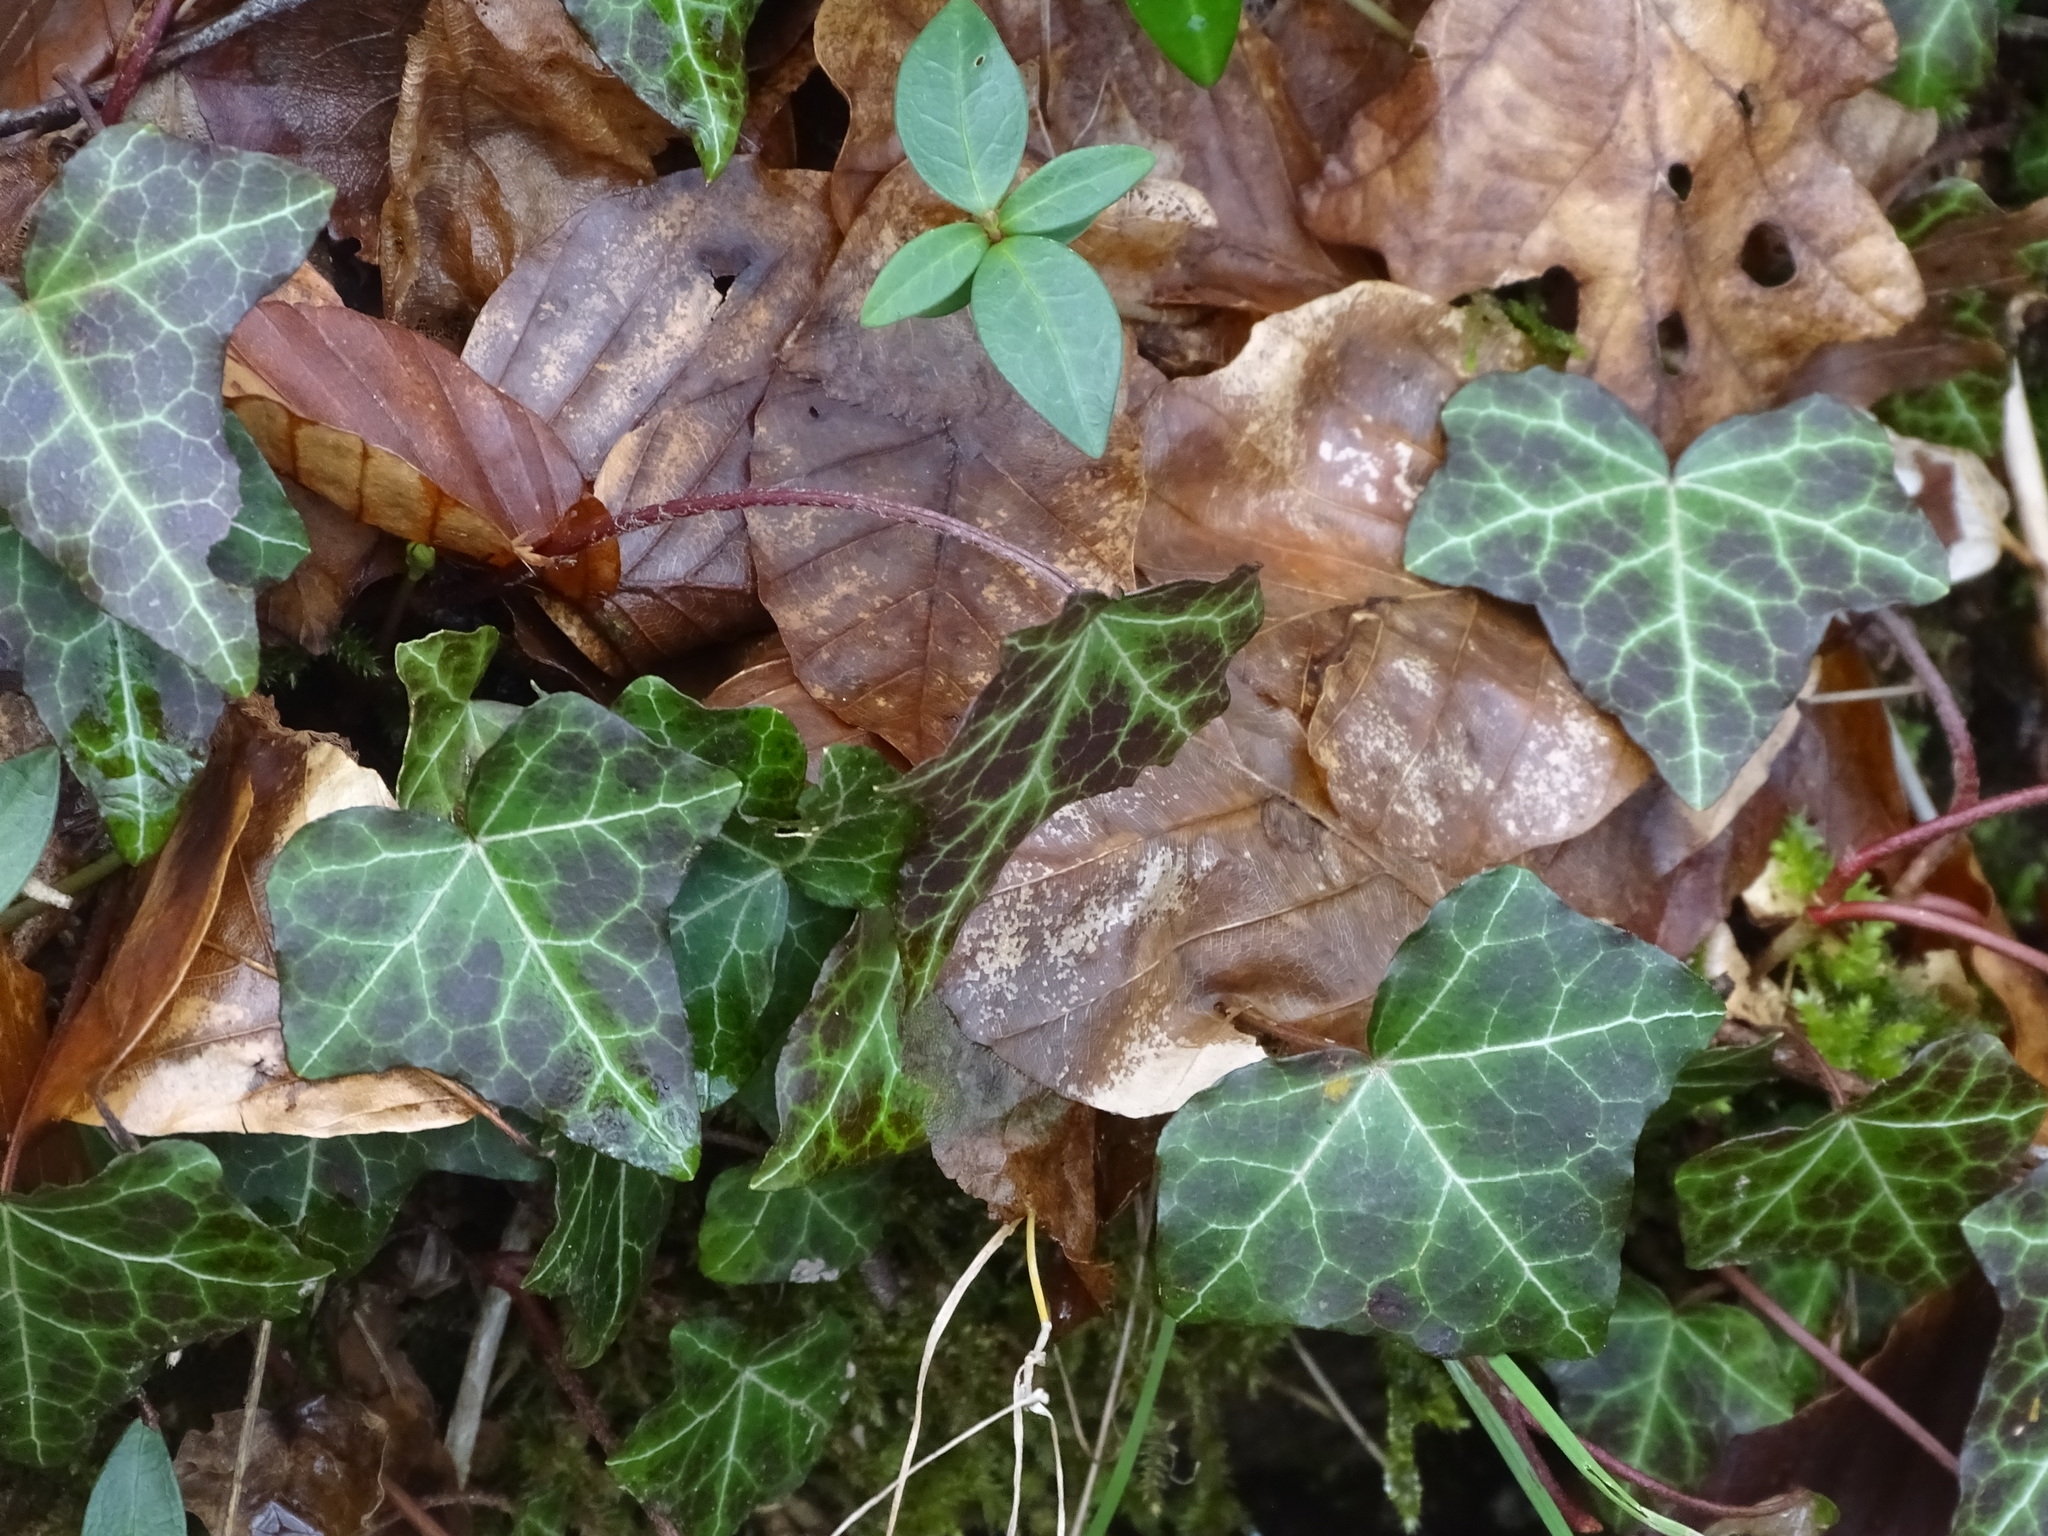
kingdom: Plantae
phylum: Tracheophyta
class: Magnoliopsida
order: Apiales
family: Araliaceae
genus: Hedera
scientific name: Hedera helix
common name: Ivy
